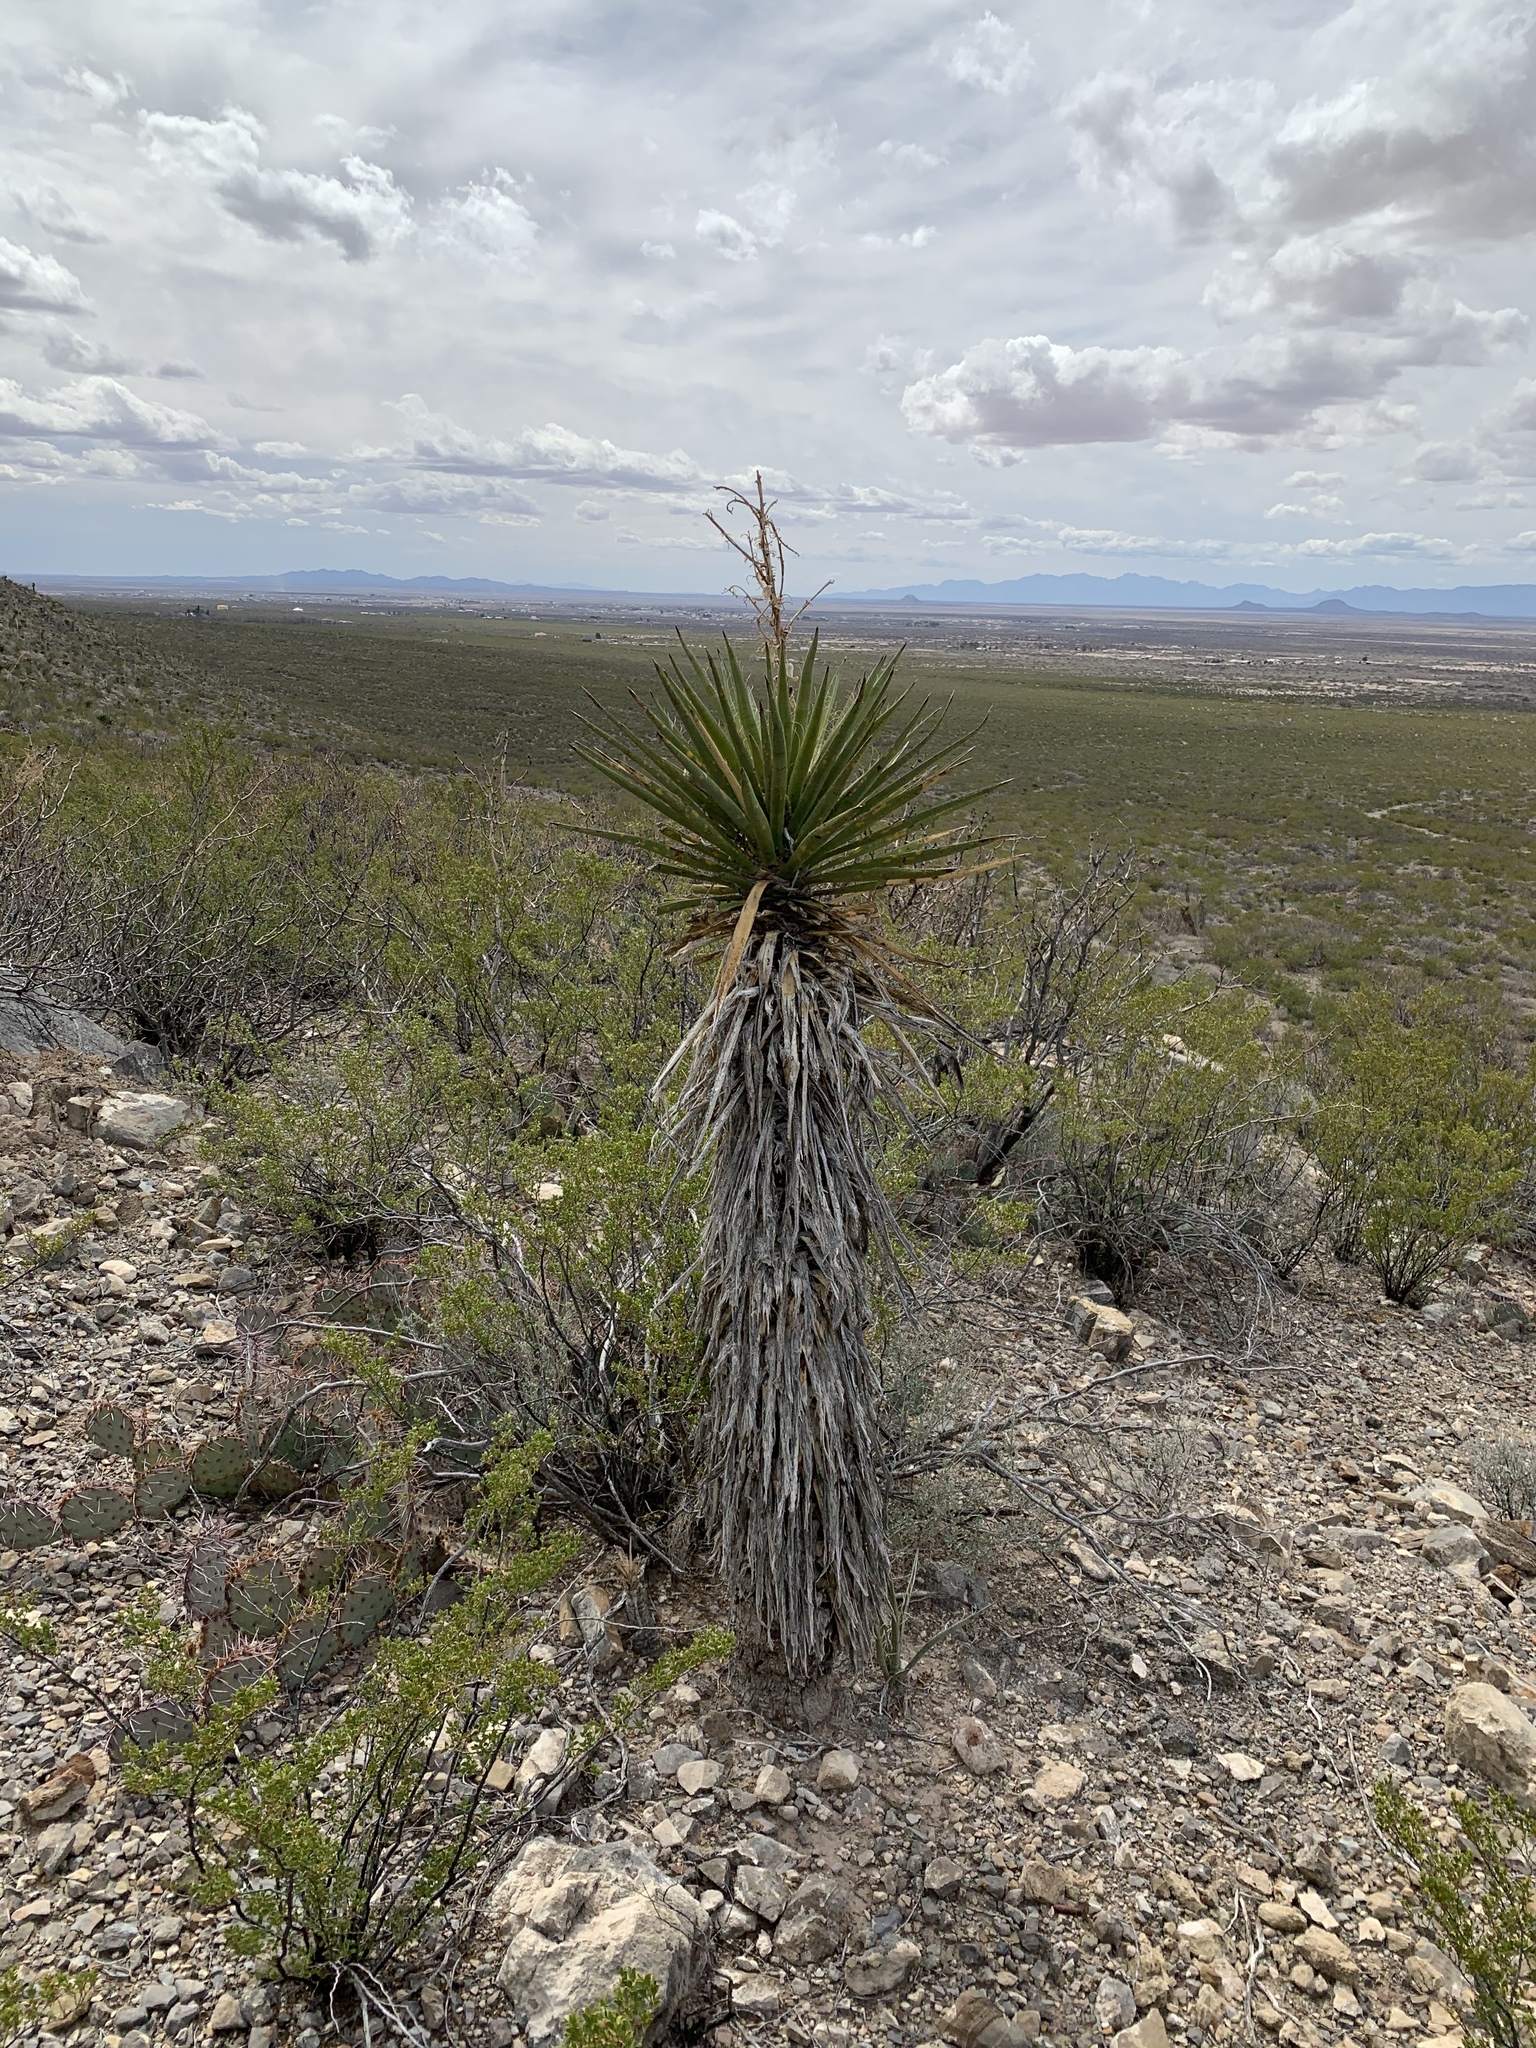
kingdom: Plantae
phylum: Tracheophyta
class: Liliopsida
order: Asparagales
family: Asparagaceae
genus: Yucca
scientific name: Yucca treculiana
